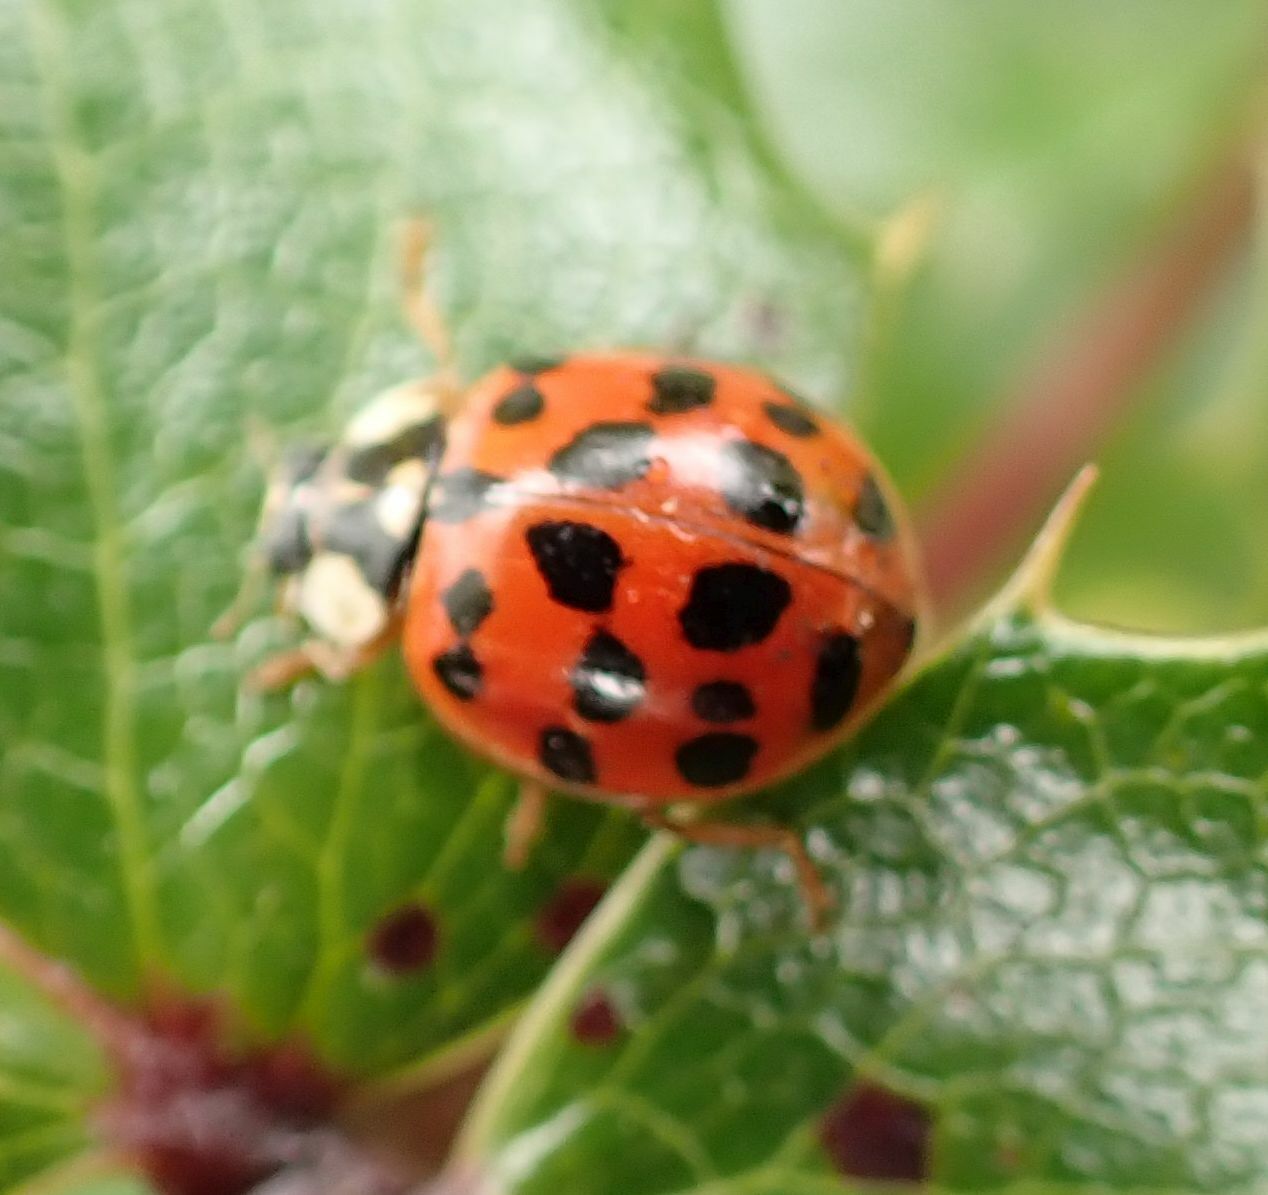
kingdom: Animalia
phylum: Arthropoda
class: Insecta
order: Coleoptera
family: Coccinellidae
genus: Harmonia
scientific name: Harmonia axyridis
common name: Harlequin ladybird
